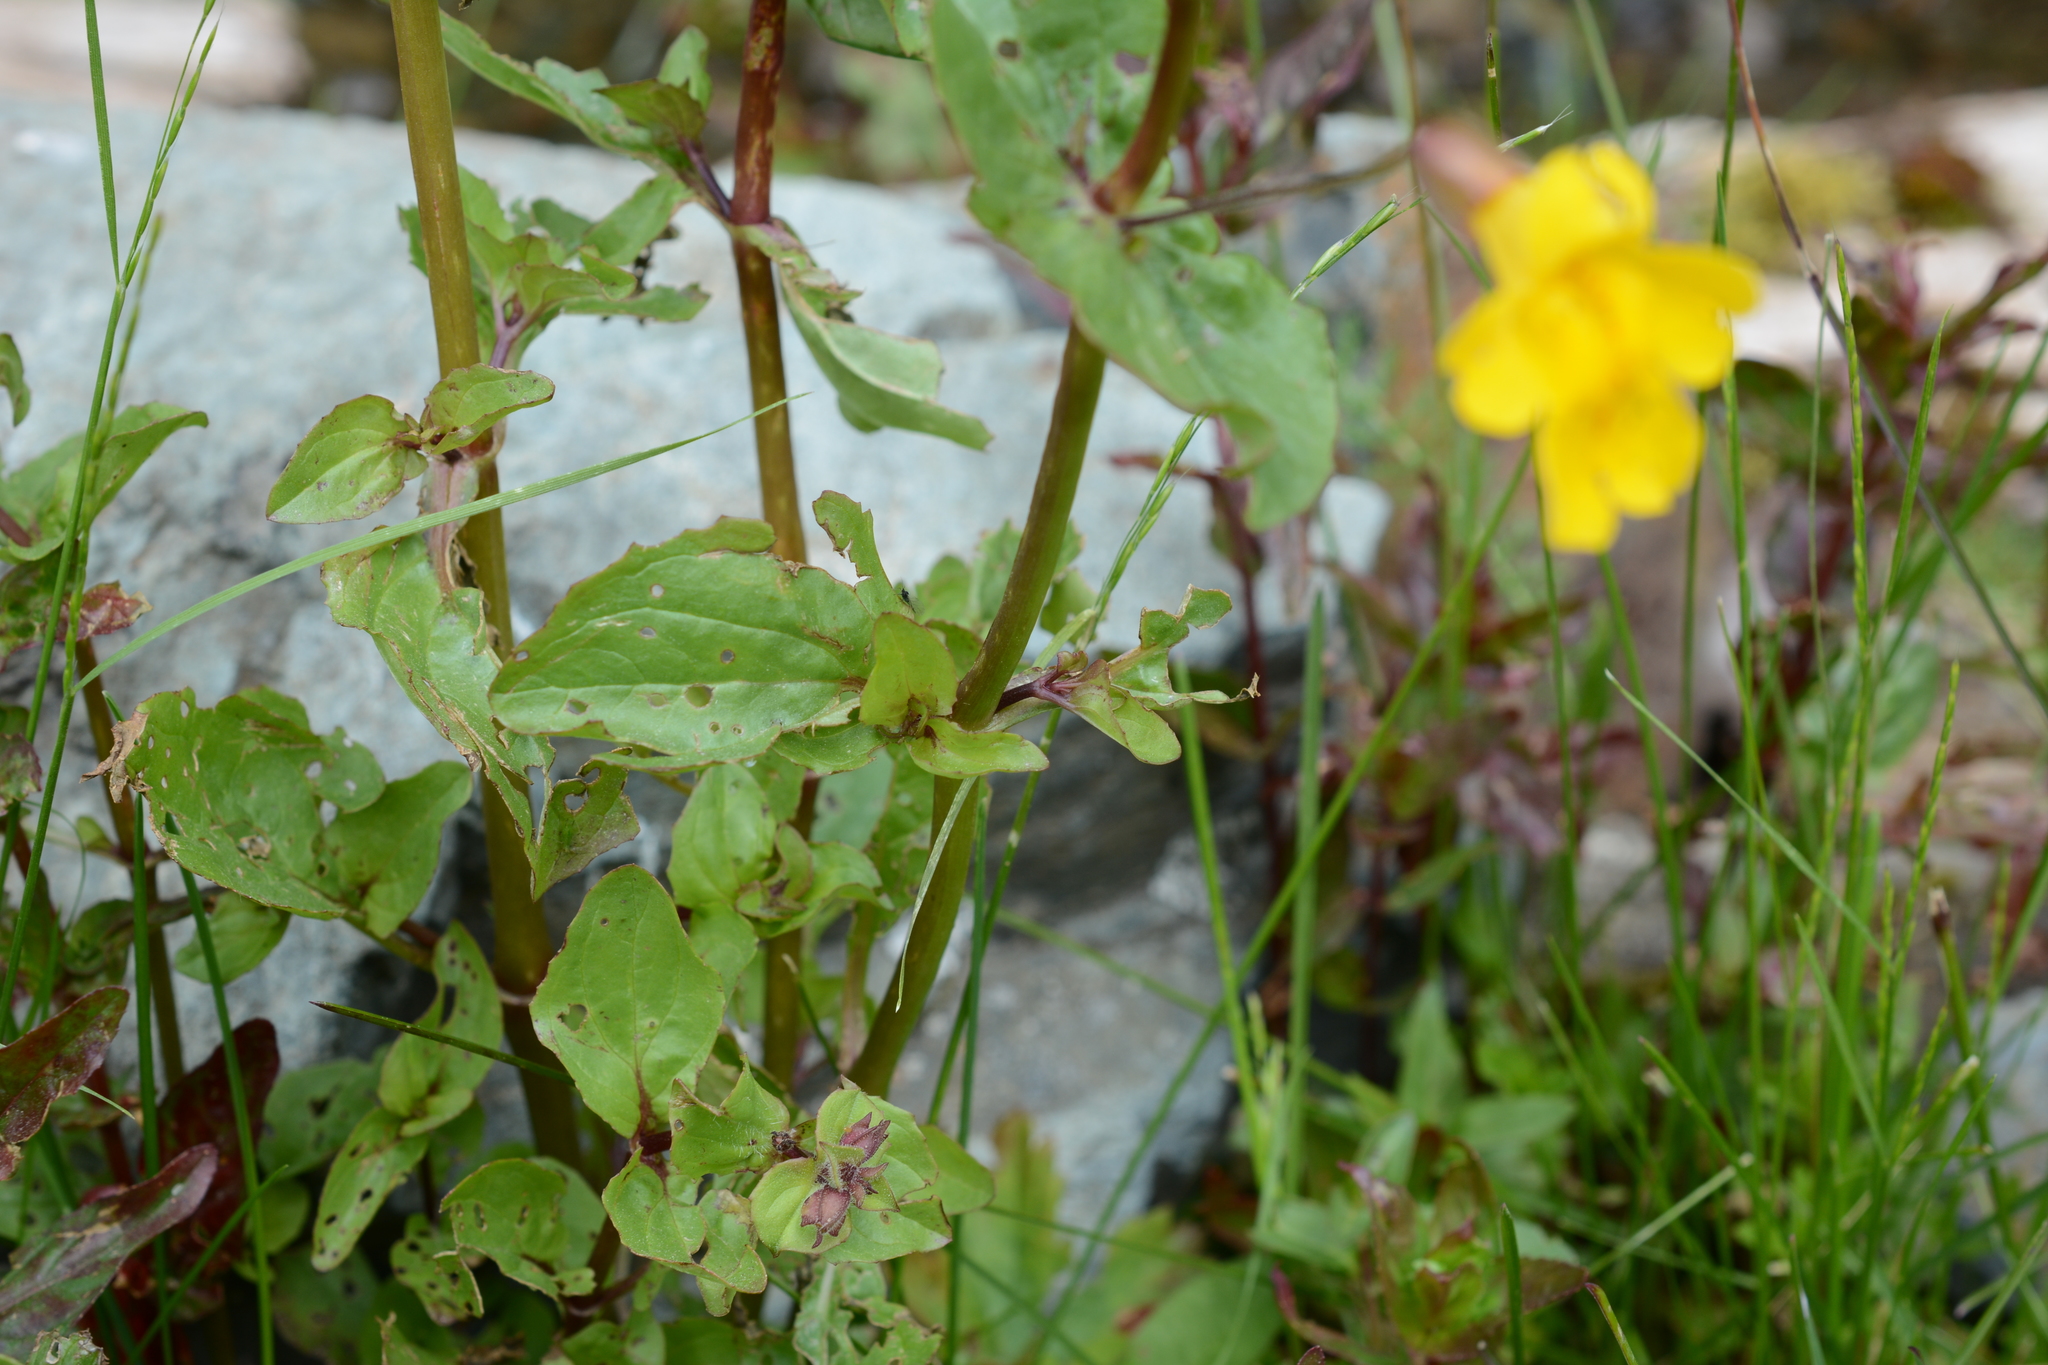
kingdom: Plantae
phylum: Tracheophyta
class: Magnoliopsida
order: Lamiales
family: Phrymaceae
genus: Erythranthe
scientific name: Erythranthe guttata
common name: Monkeyflower
